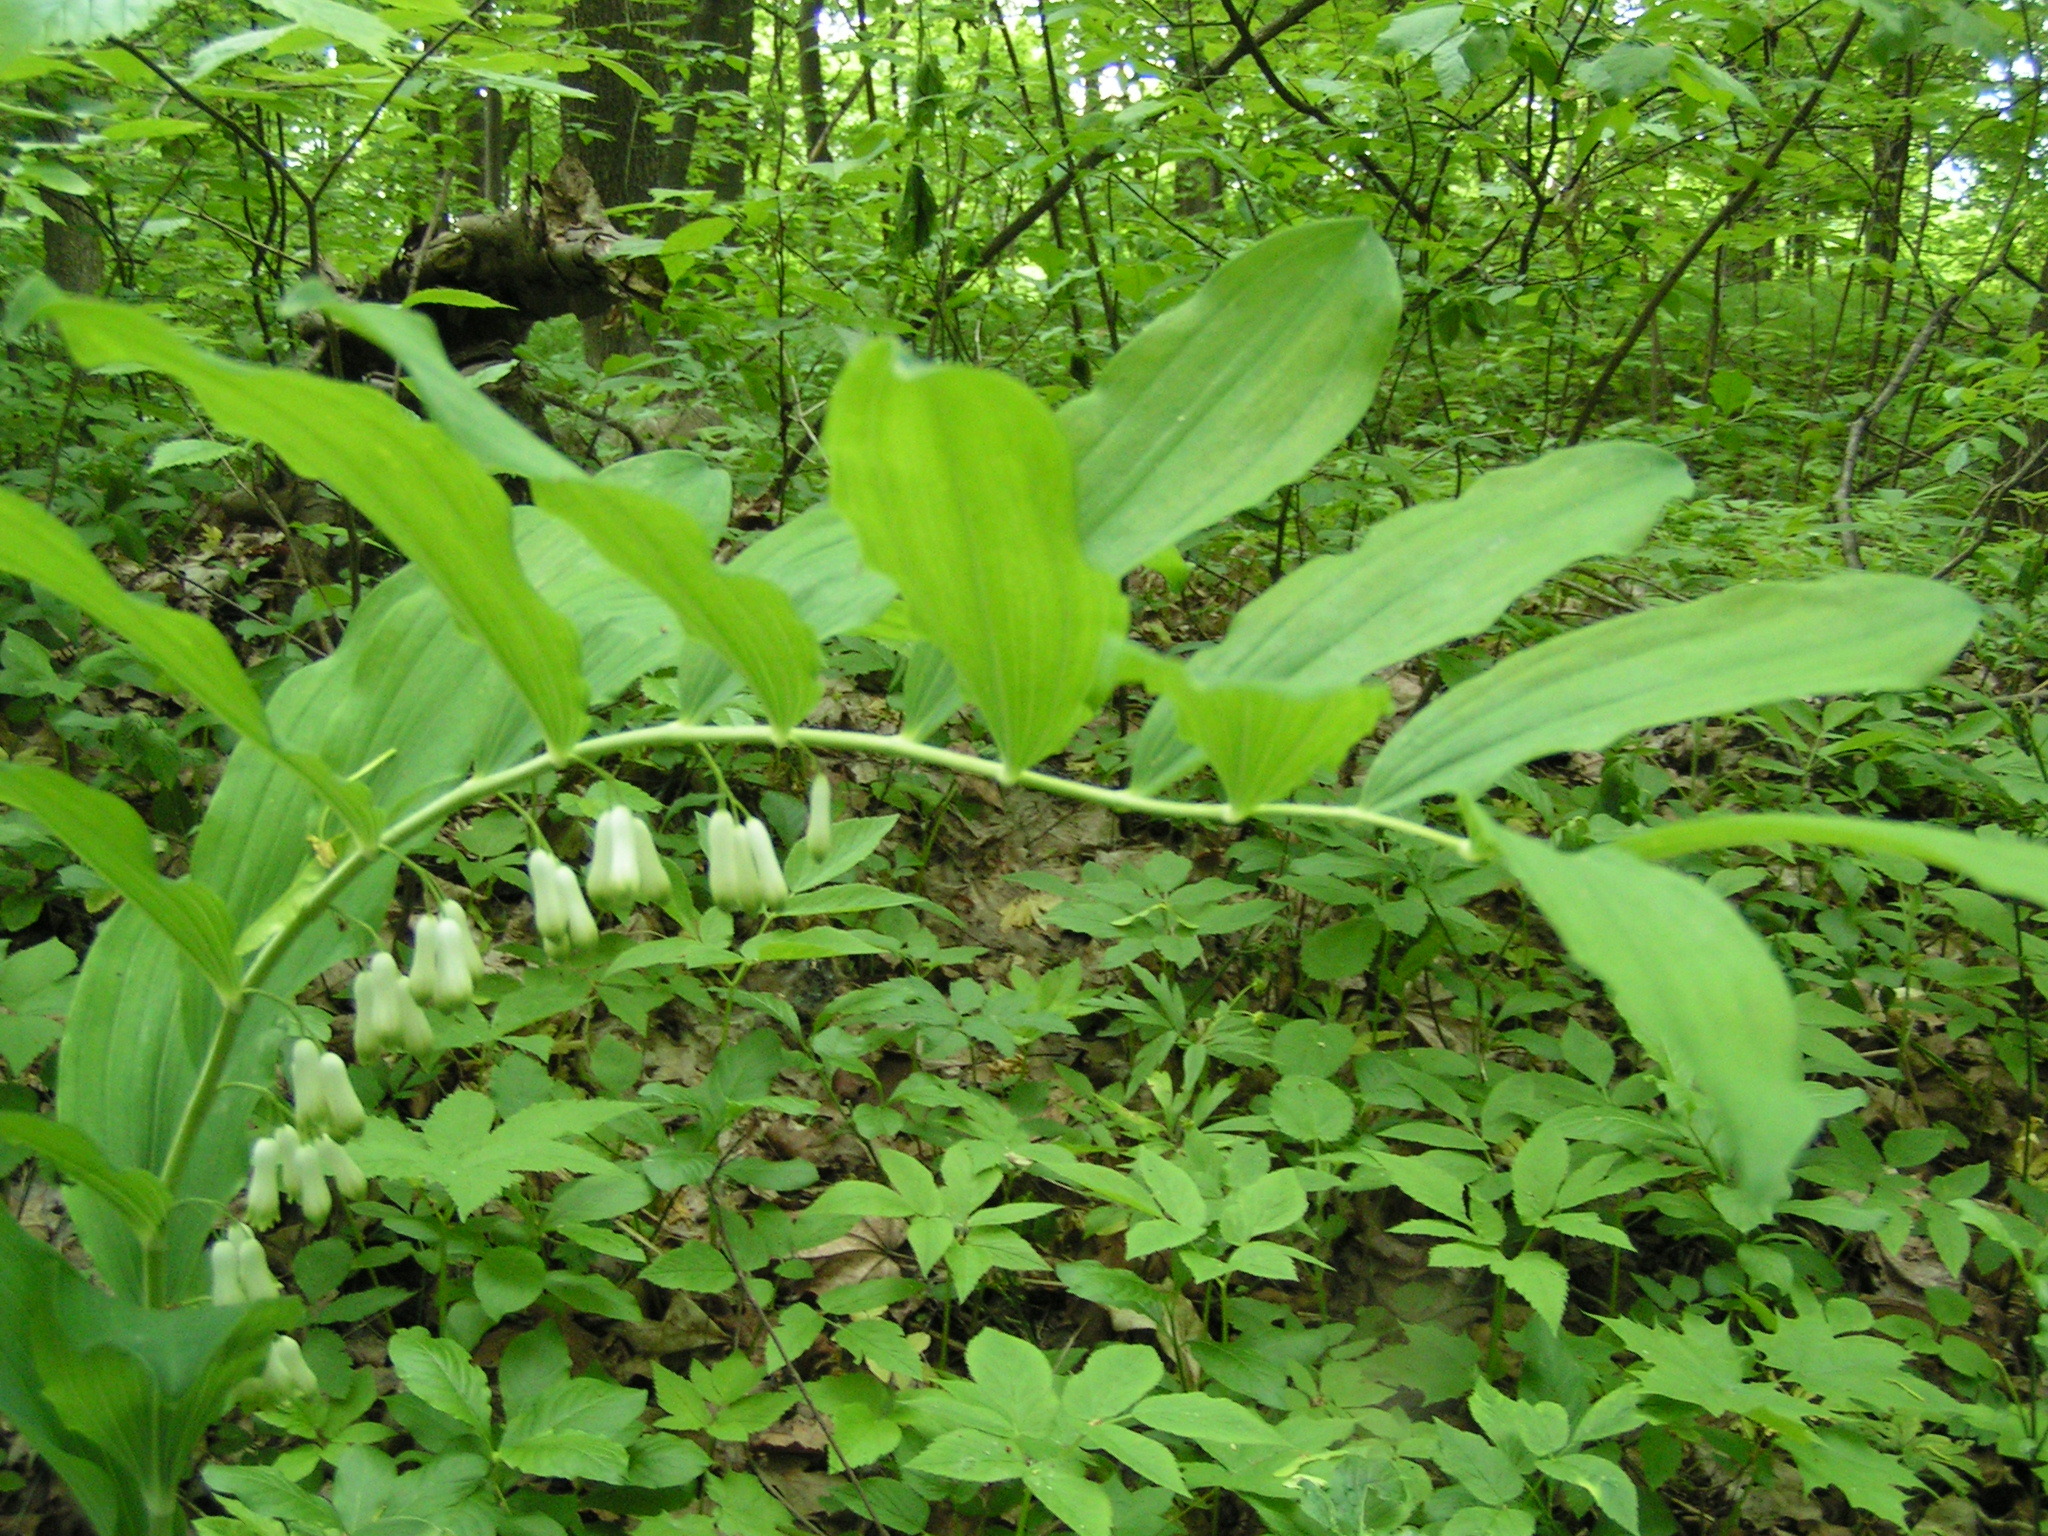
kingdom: Plantae
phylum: Tracheophyta
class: Liliopsida
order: Asparagales
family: Asparagaceae
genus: Polygonatum
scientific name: Polygonatum multiflorum
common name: Solomon's-seal
